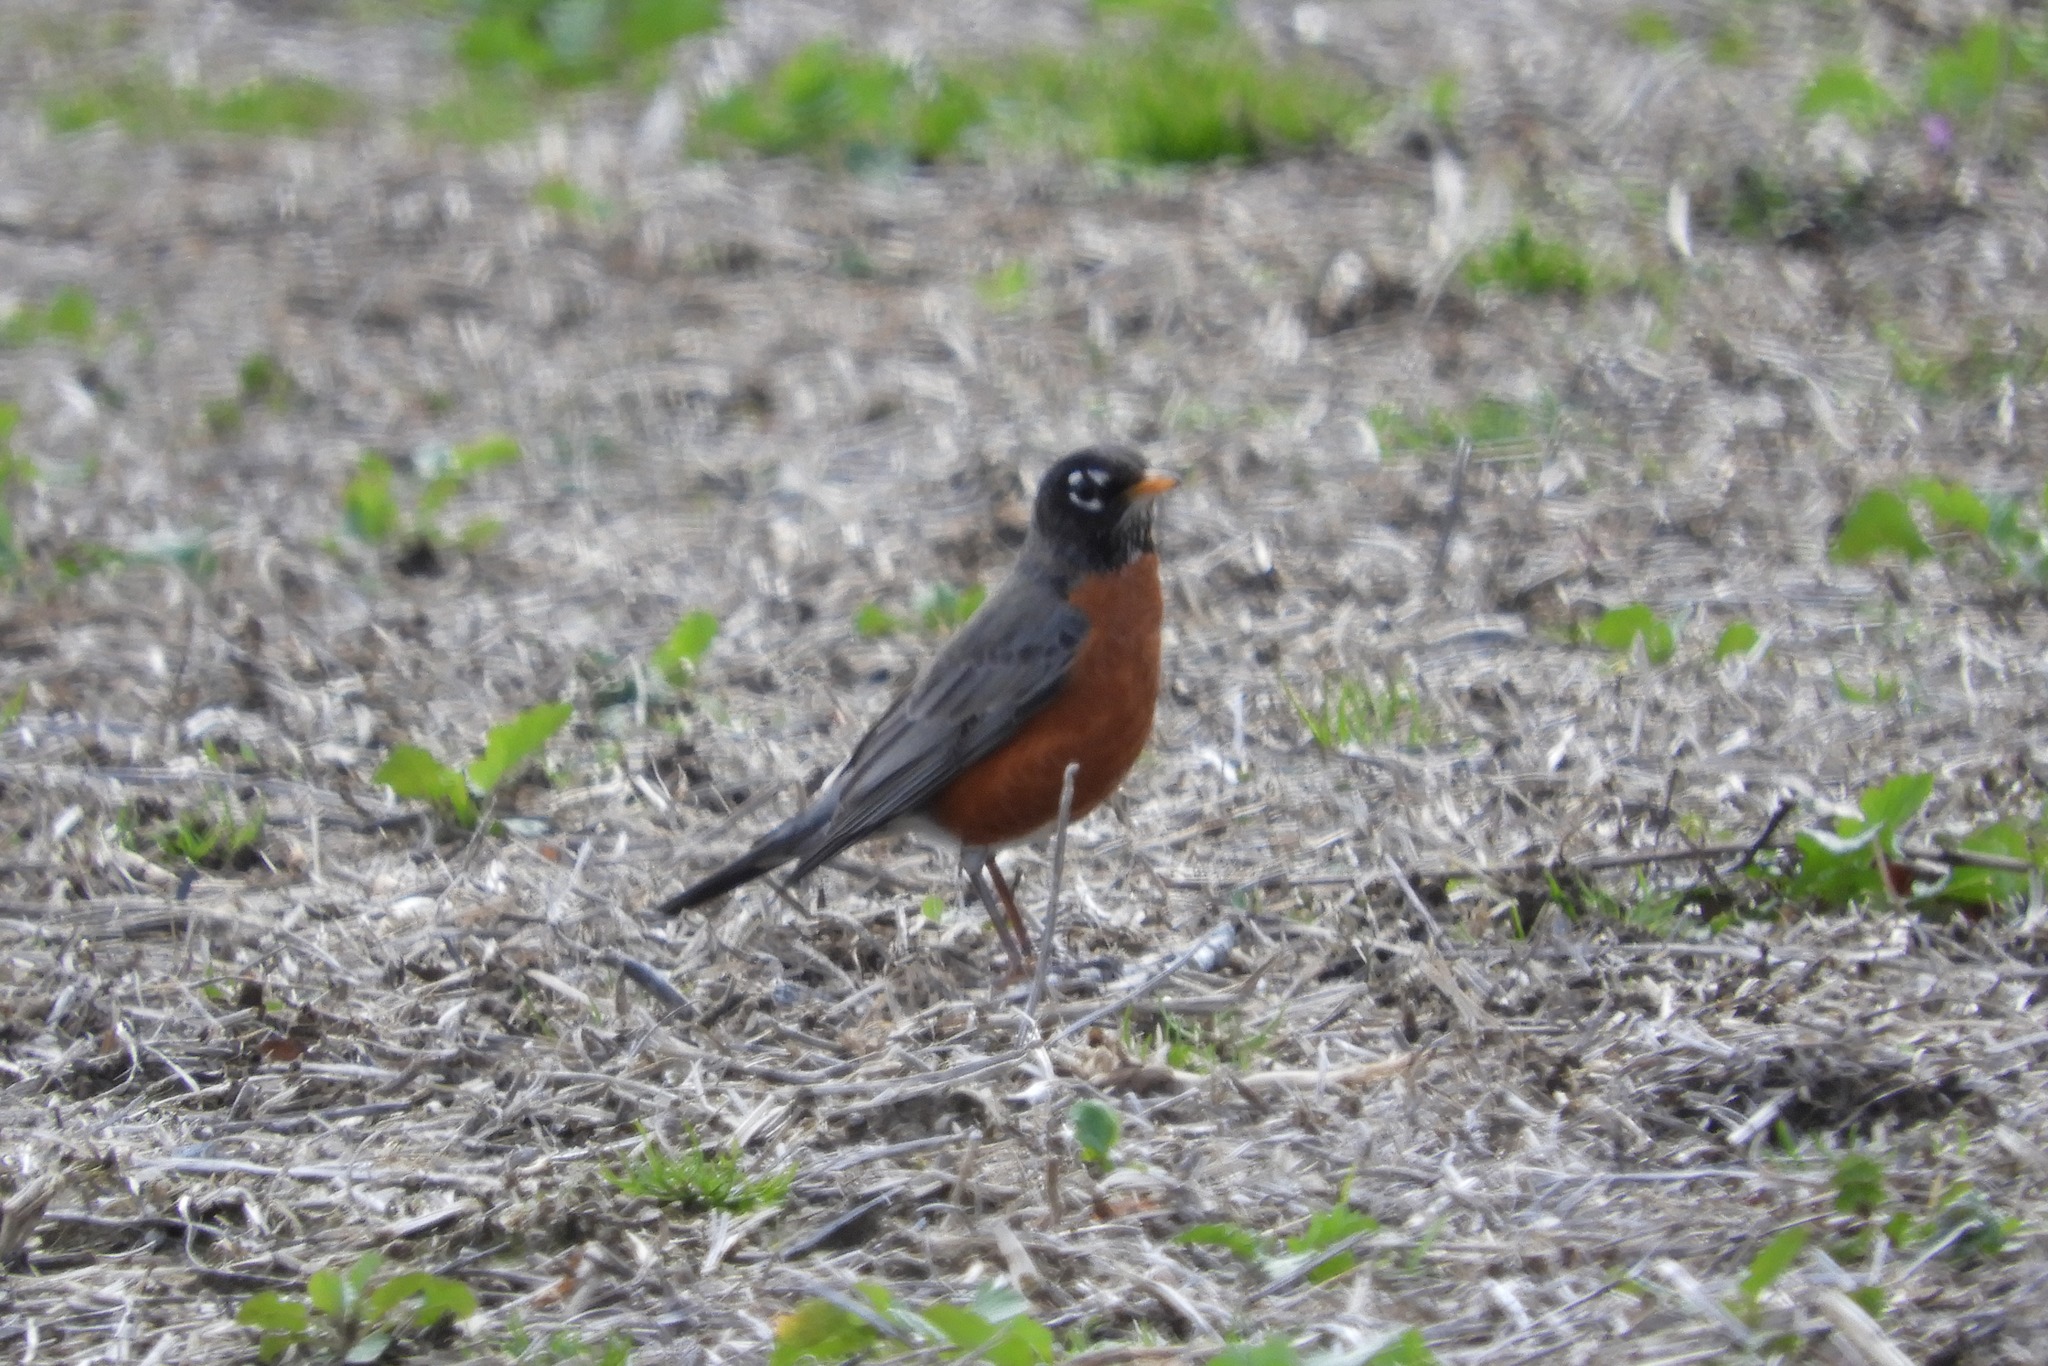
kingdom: Animalia
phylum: Chordata
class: Aves
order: Passeriformes
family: Turdidae
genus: Turdus
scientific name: Turdus migratorius
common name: American robin
